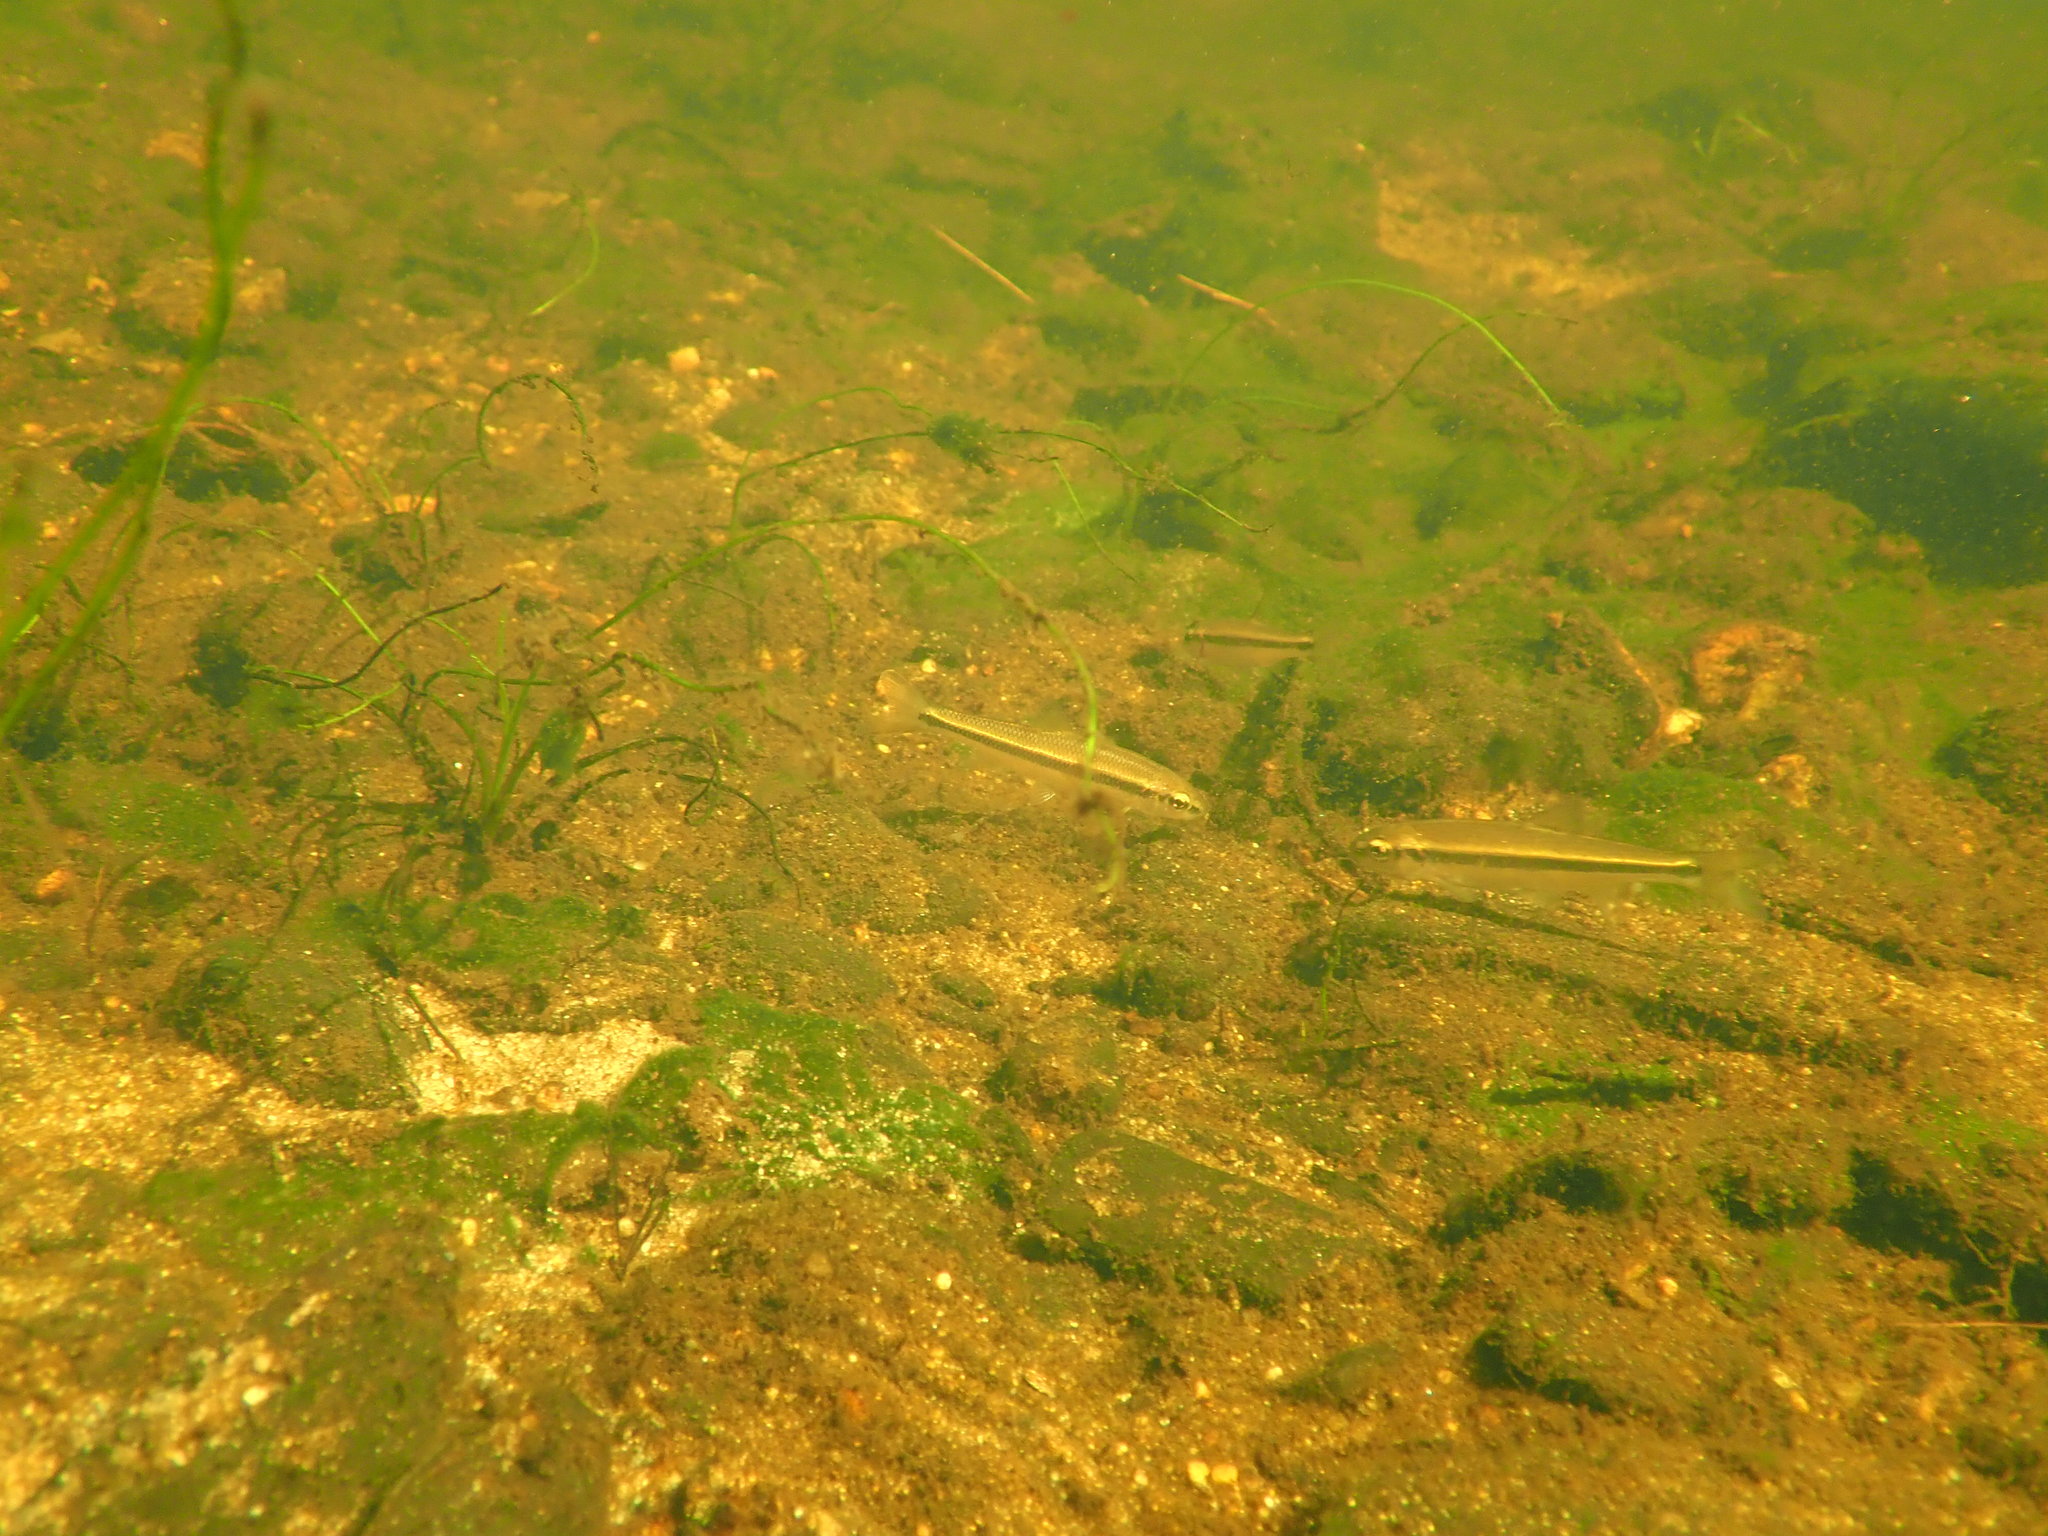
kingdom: Animalia
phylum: Chordata
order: Cypriniformes
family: Catostomidae
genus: Erimyzon
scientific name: Erimyzon oblongus
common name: Eastern creek chubsucker
